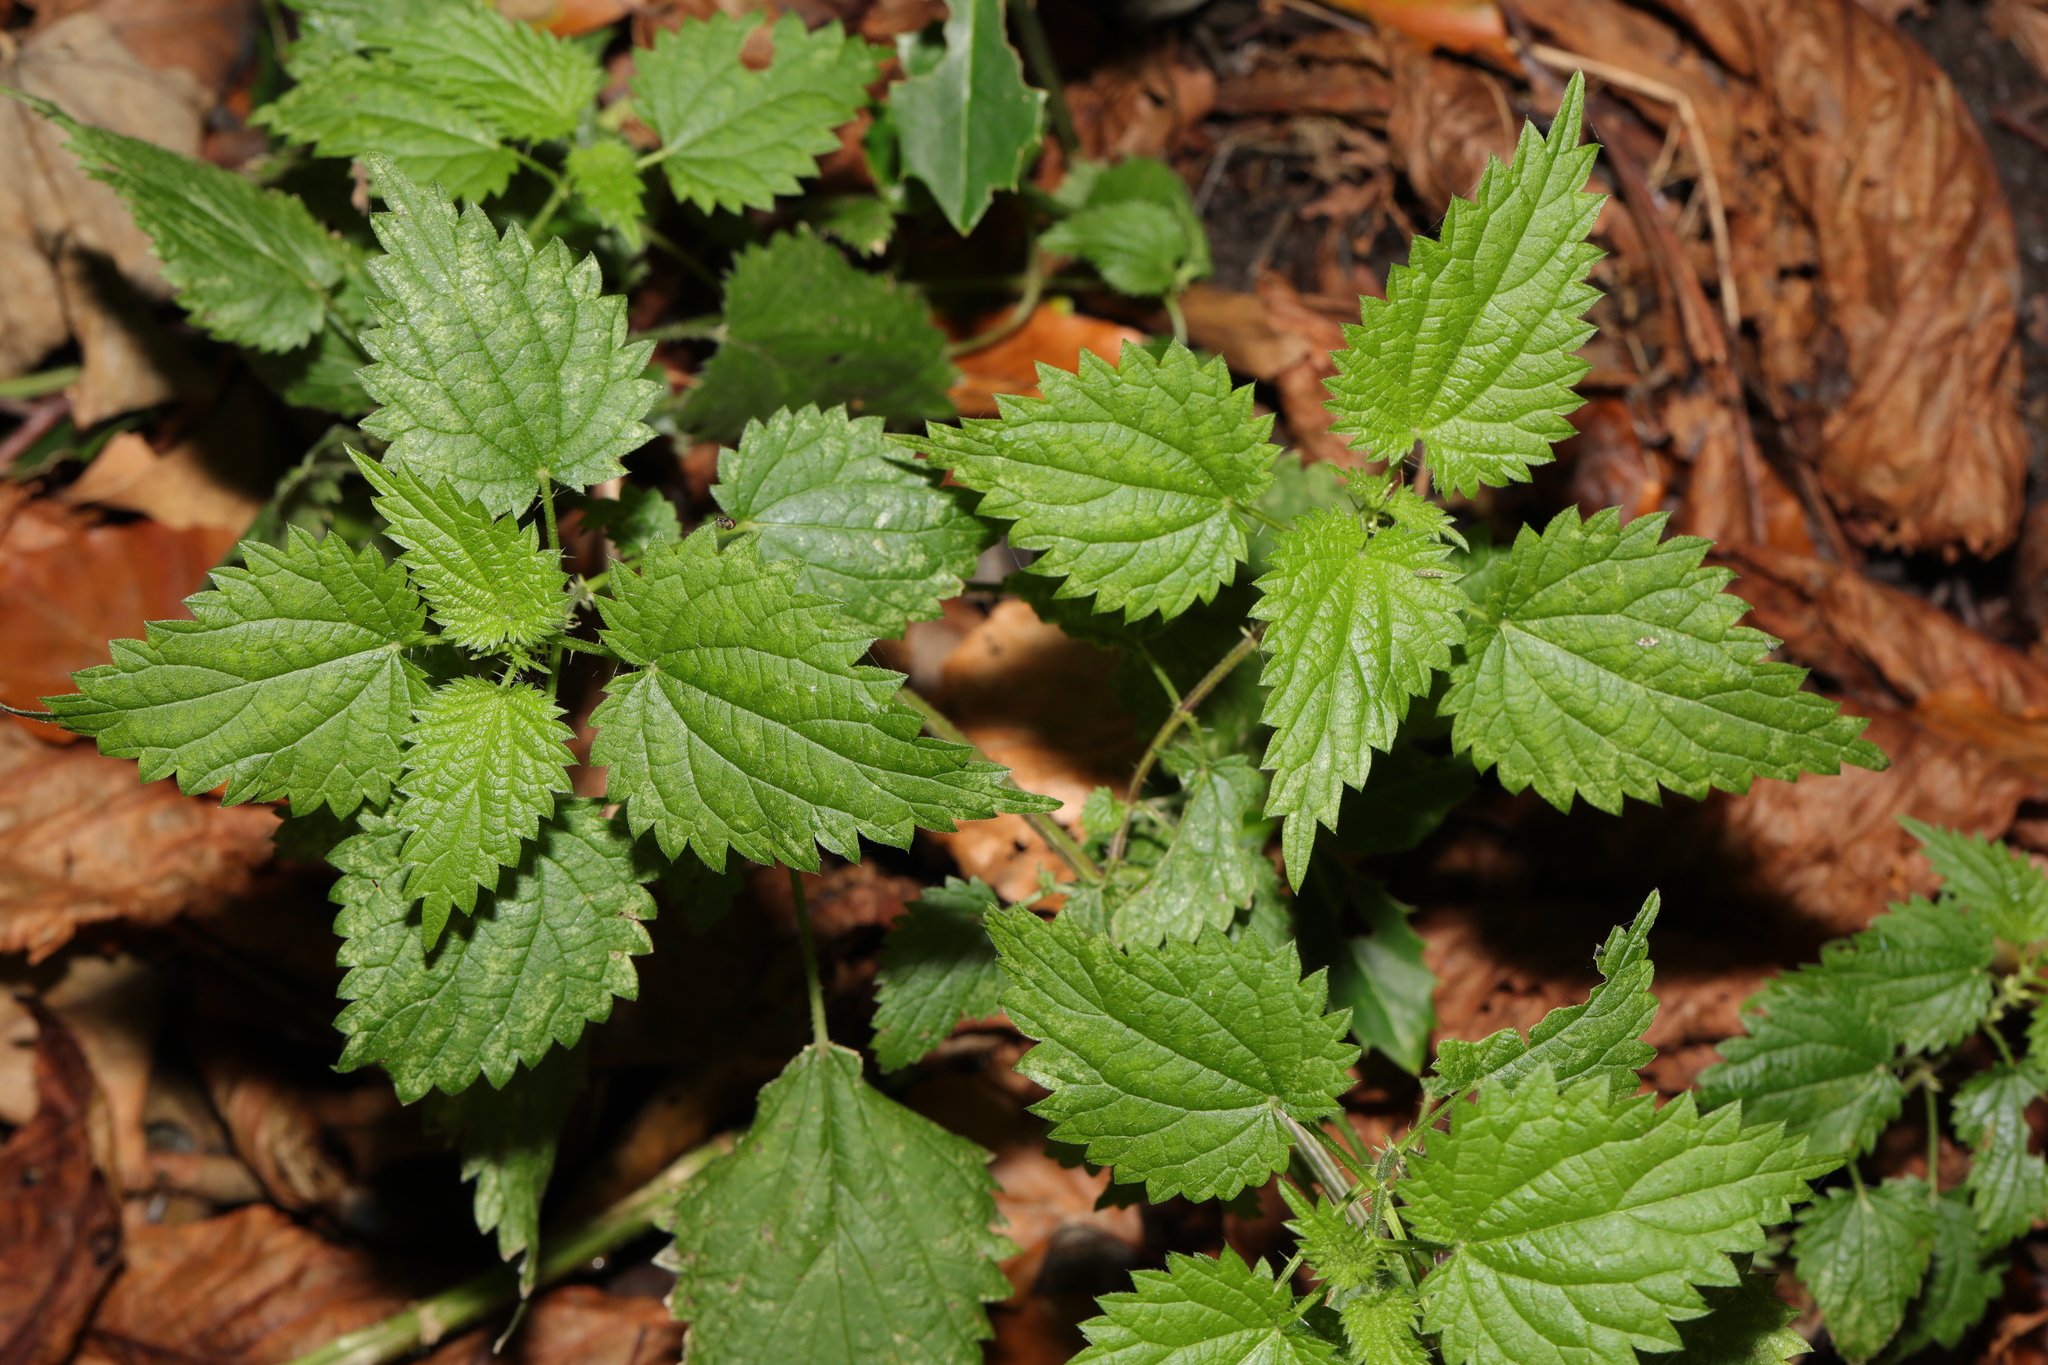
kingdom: Plantae
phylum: Tracheophyta
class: Magnoliopsida
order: Rosales
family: Urticaceae
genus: Urtica
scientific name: Urtica dioica
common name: Common nettle
